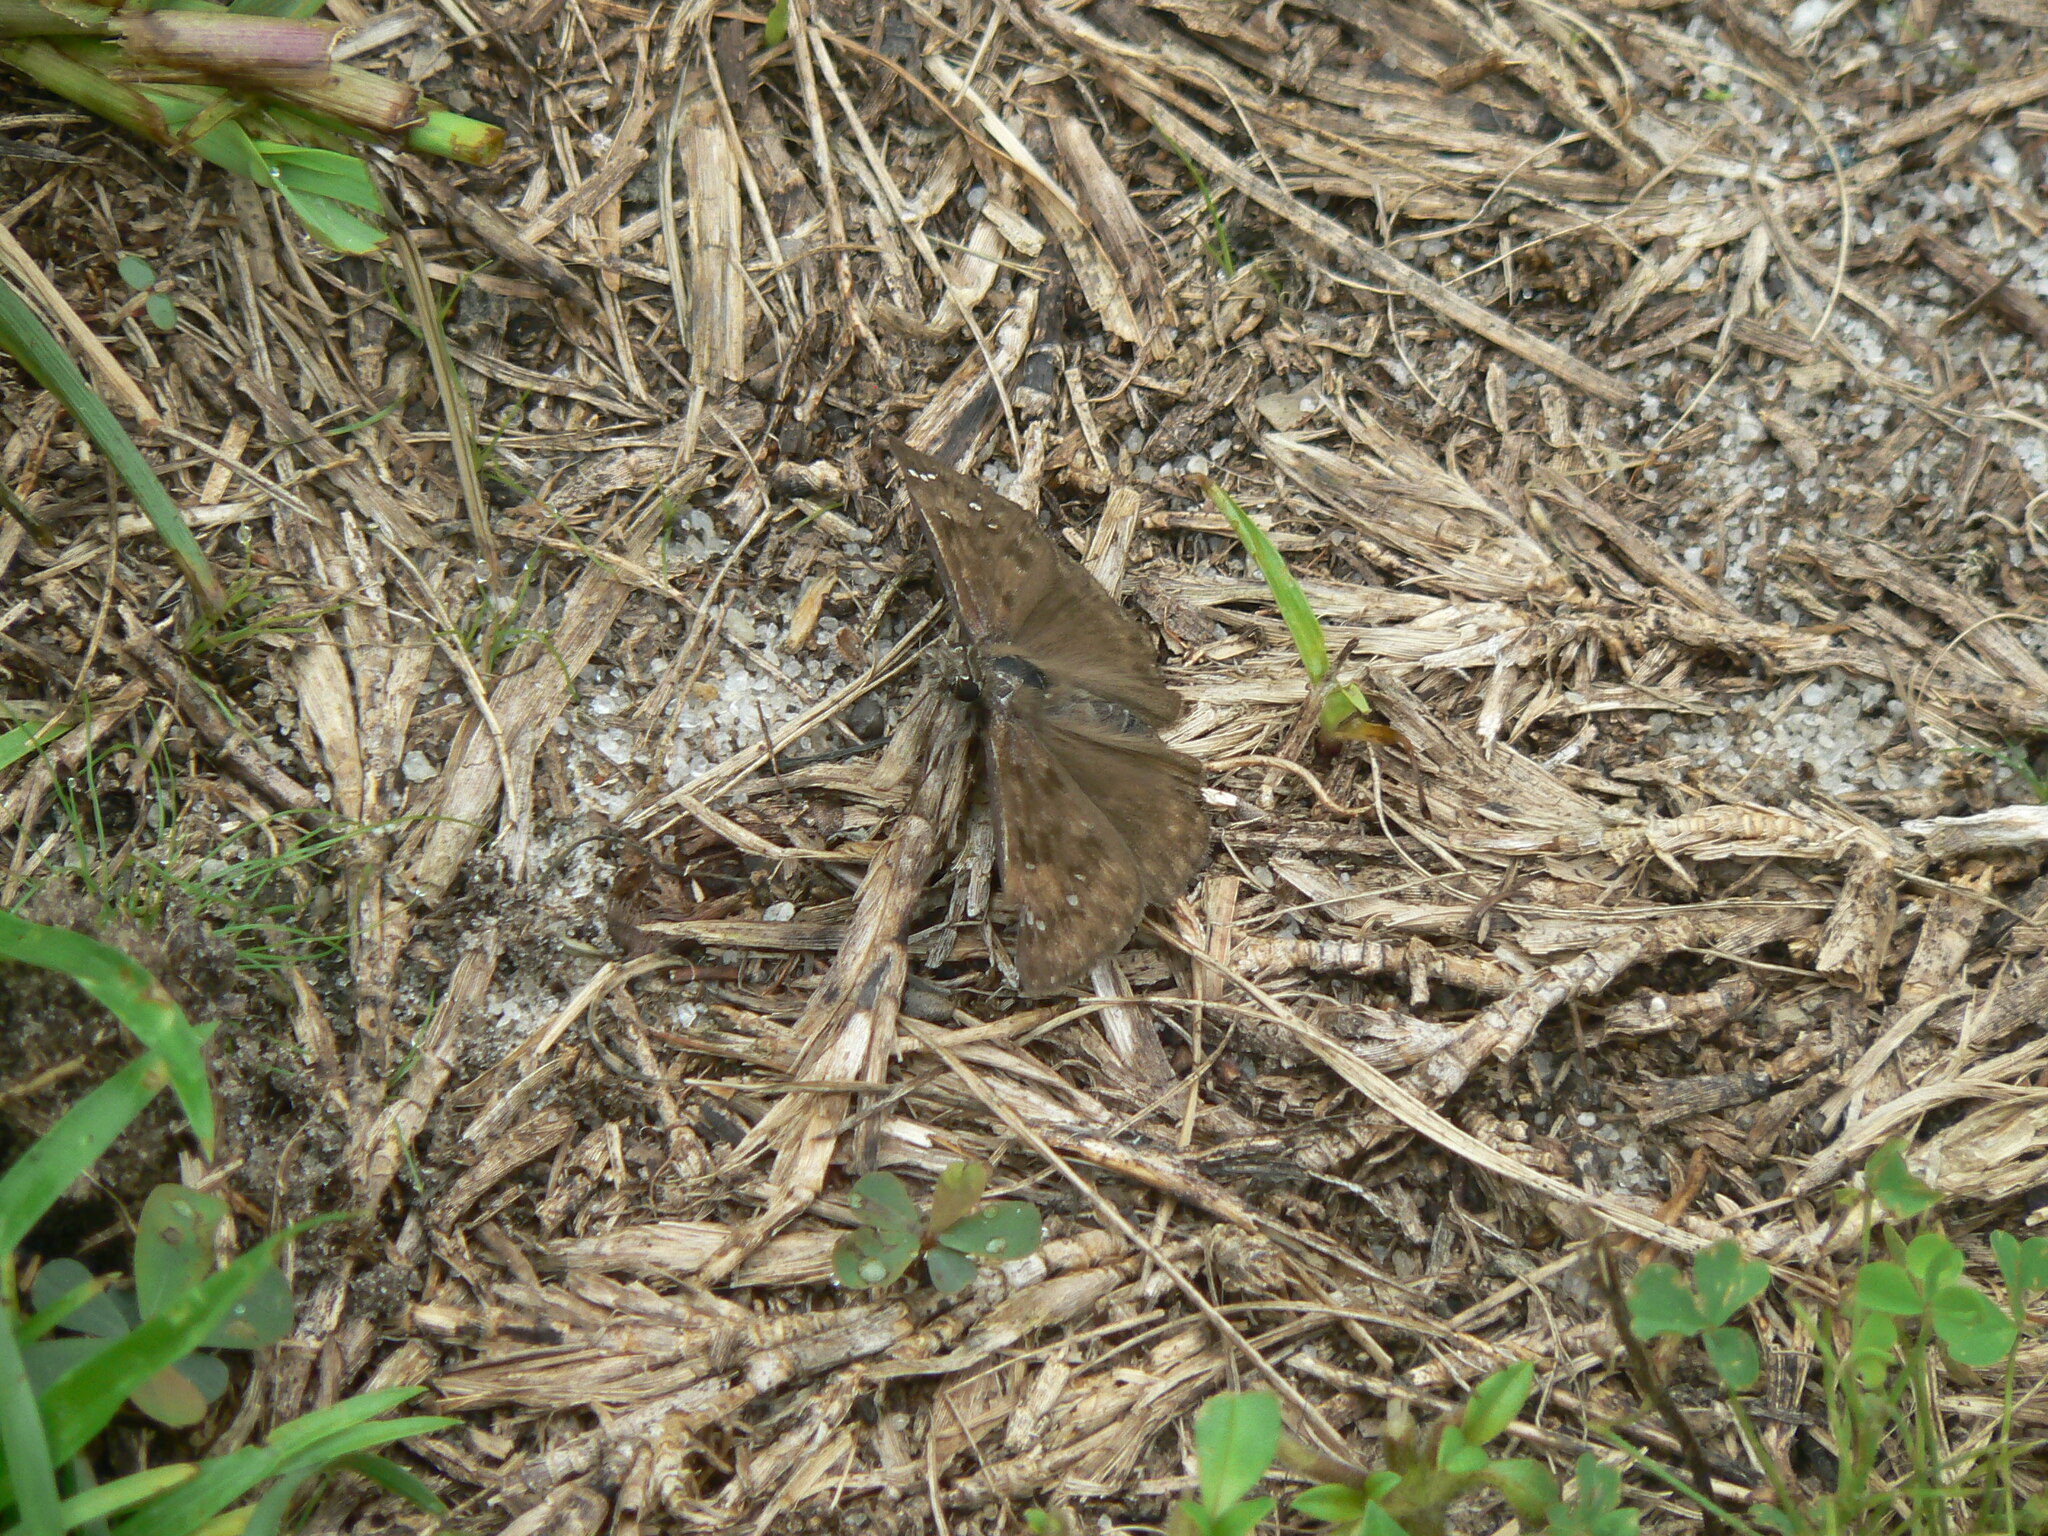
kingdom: Animalia
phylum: Arthropoda
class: Insecta
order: Lepidoptera
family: Hesperiidae
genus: Erynnis
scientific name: Erynnis horatius
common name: Horace's duskywing
